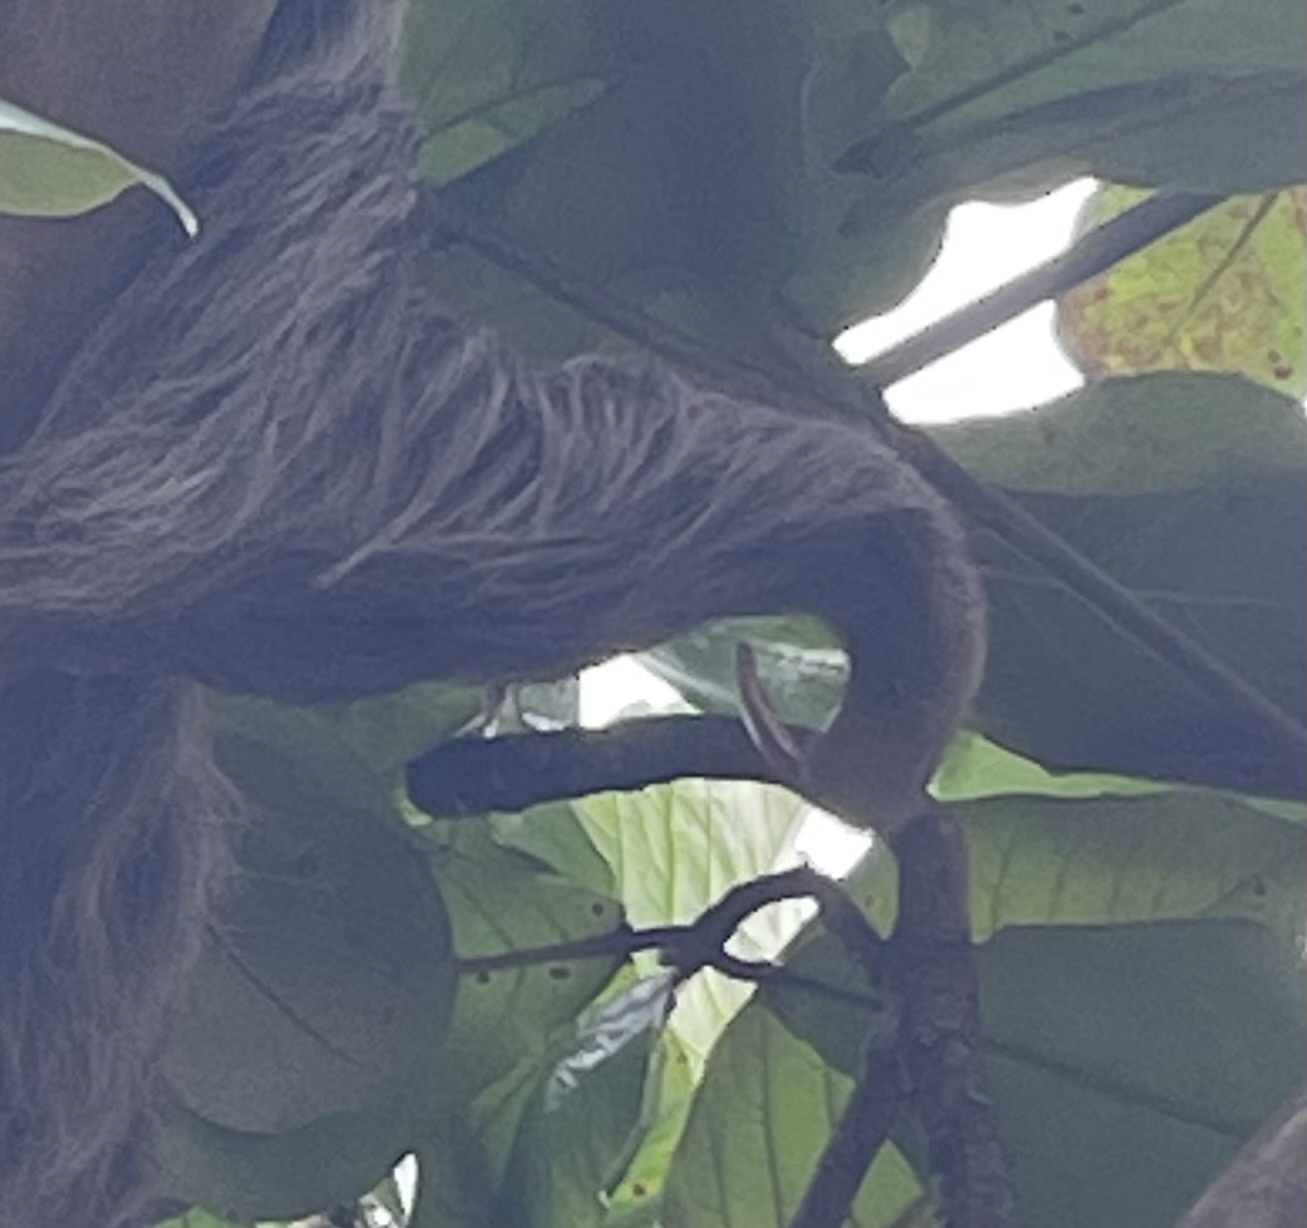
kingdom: Animalia
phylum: Chordata
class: Mammalia
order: Pilosa
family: Megalonychidae
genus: Choloepus
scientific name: Choloepus hoffmanni
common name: Hoffmann's two-toed sloth
